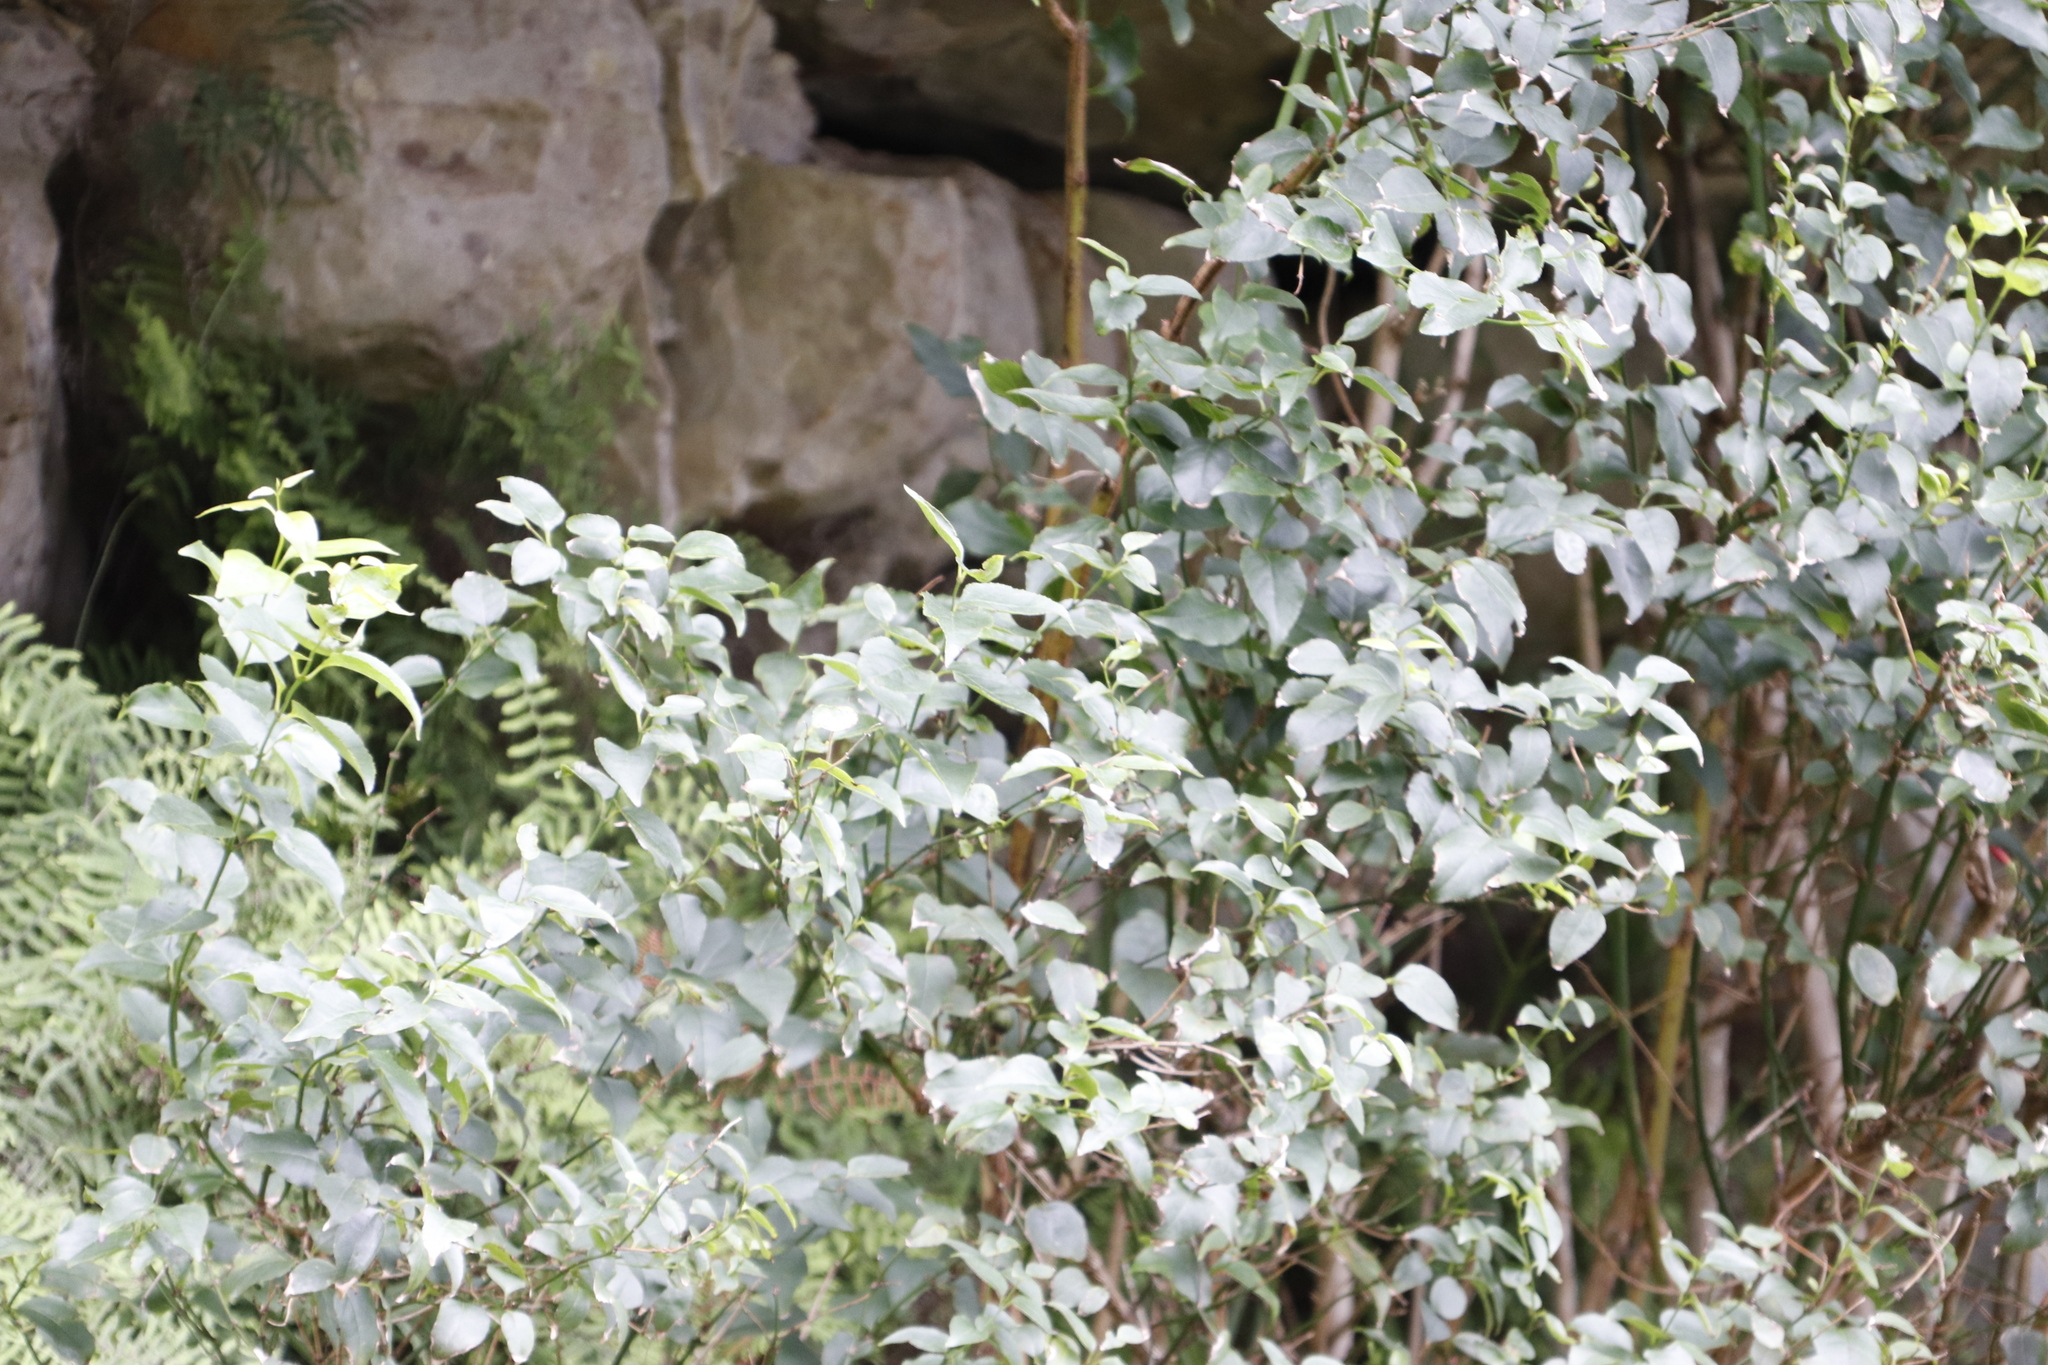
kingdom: Plantae
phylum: Tracheophyta
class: Magnoliopsida
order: Lamiales
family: Stilbaceae
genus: Halleria
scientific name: Halleria lucida
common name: Tree fuschia
